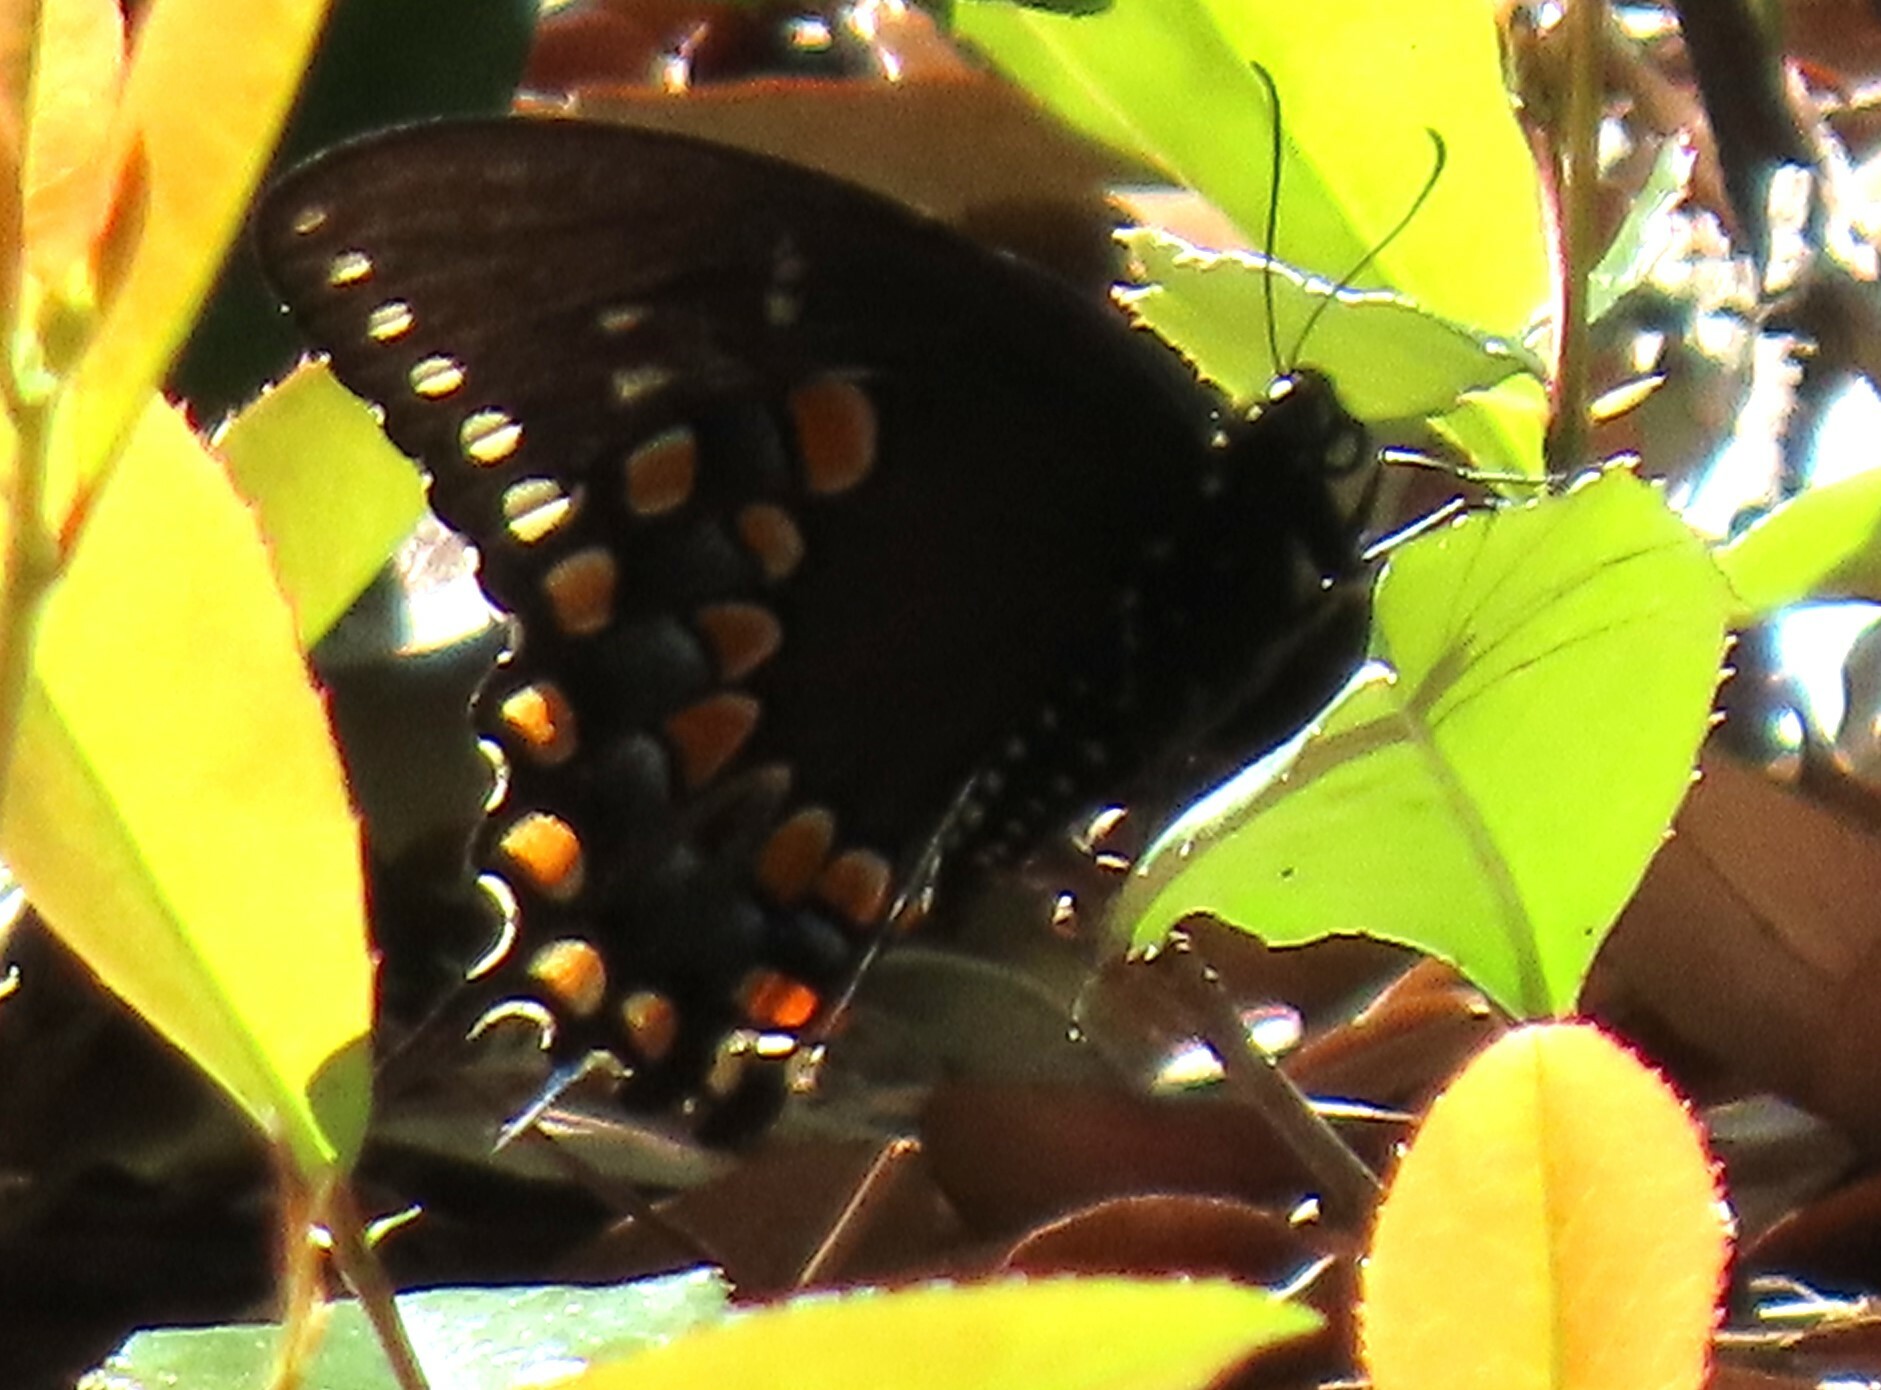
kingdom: Animalia
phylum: Arthropoda
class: Insecta
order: Lepidoptera
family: Papilionidae
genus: Papilio
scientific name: Papilio troilus
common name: Spicebush swallowtail
